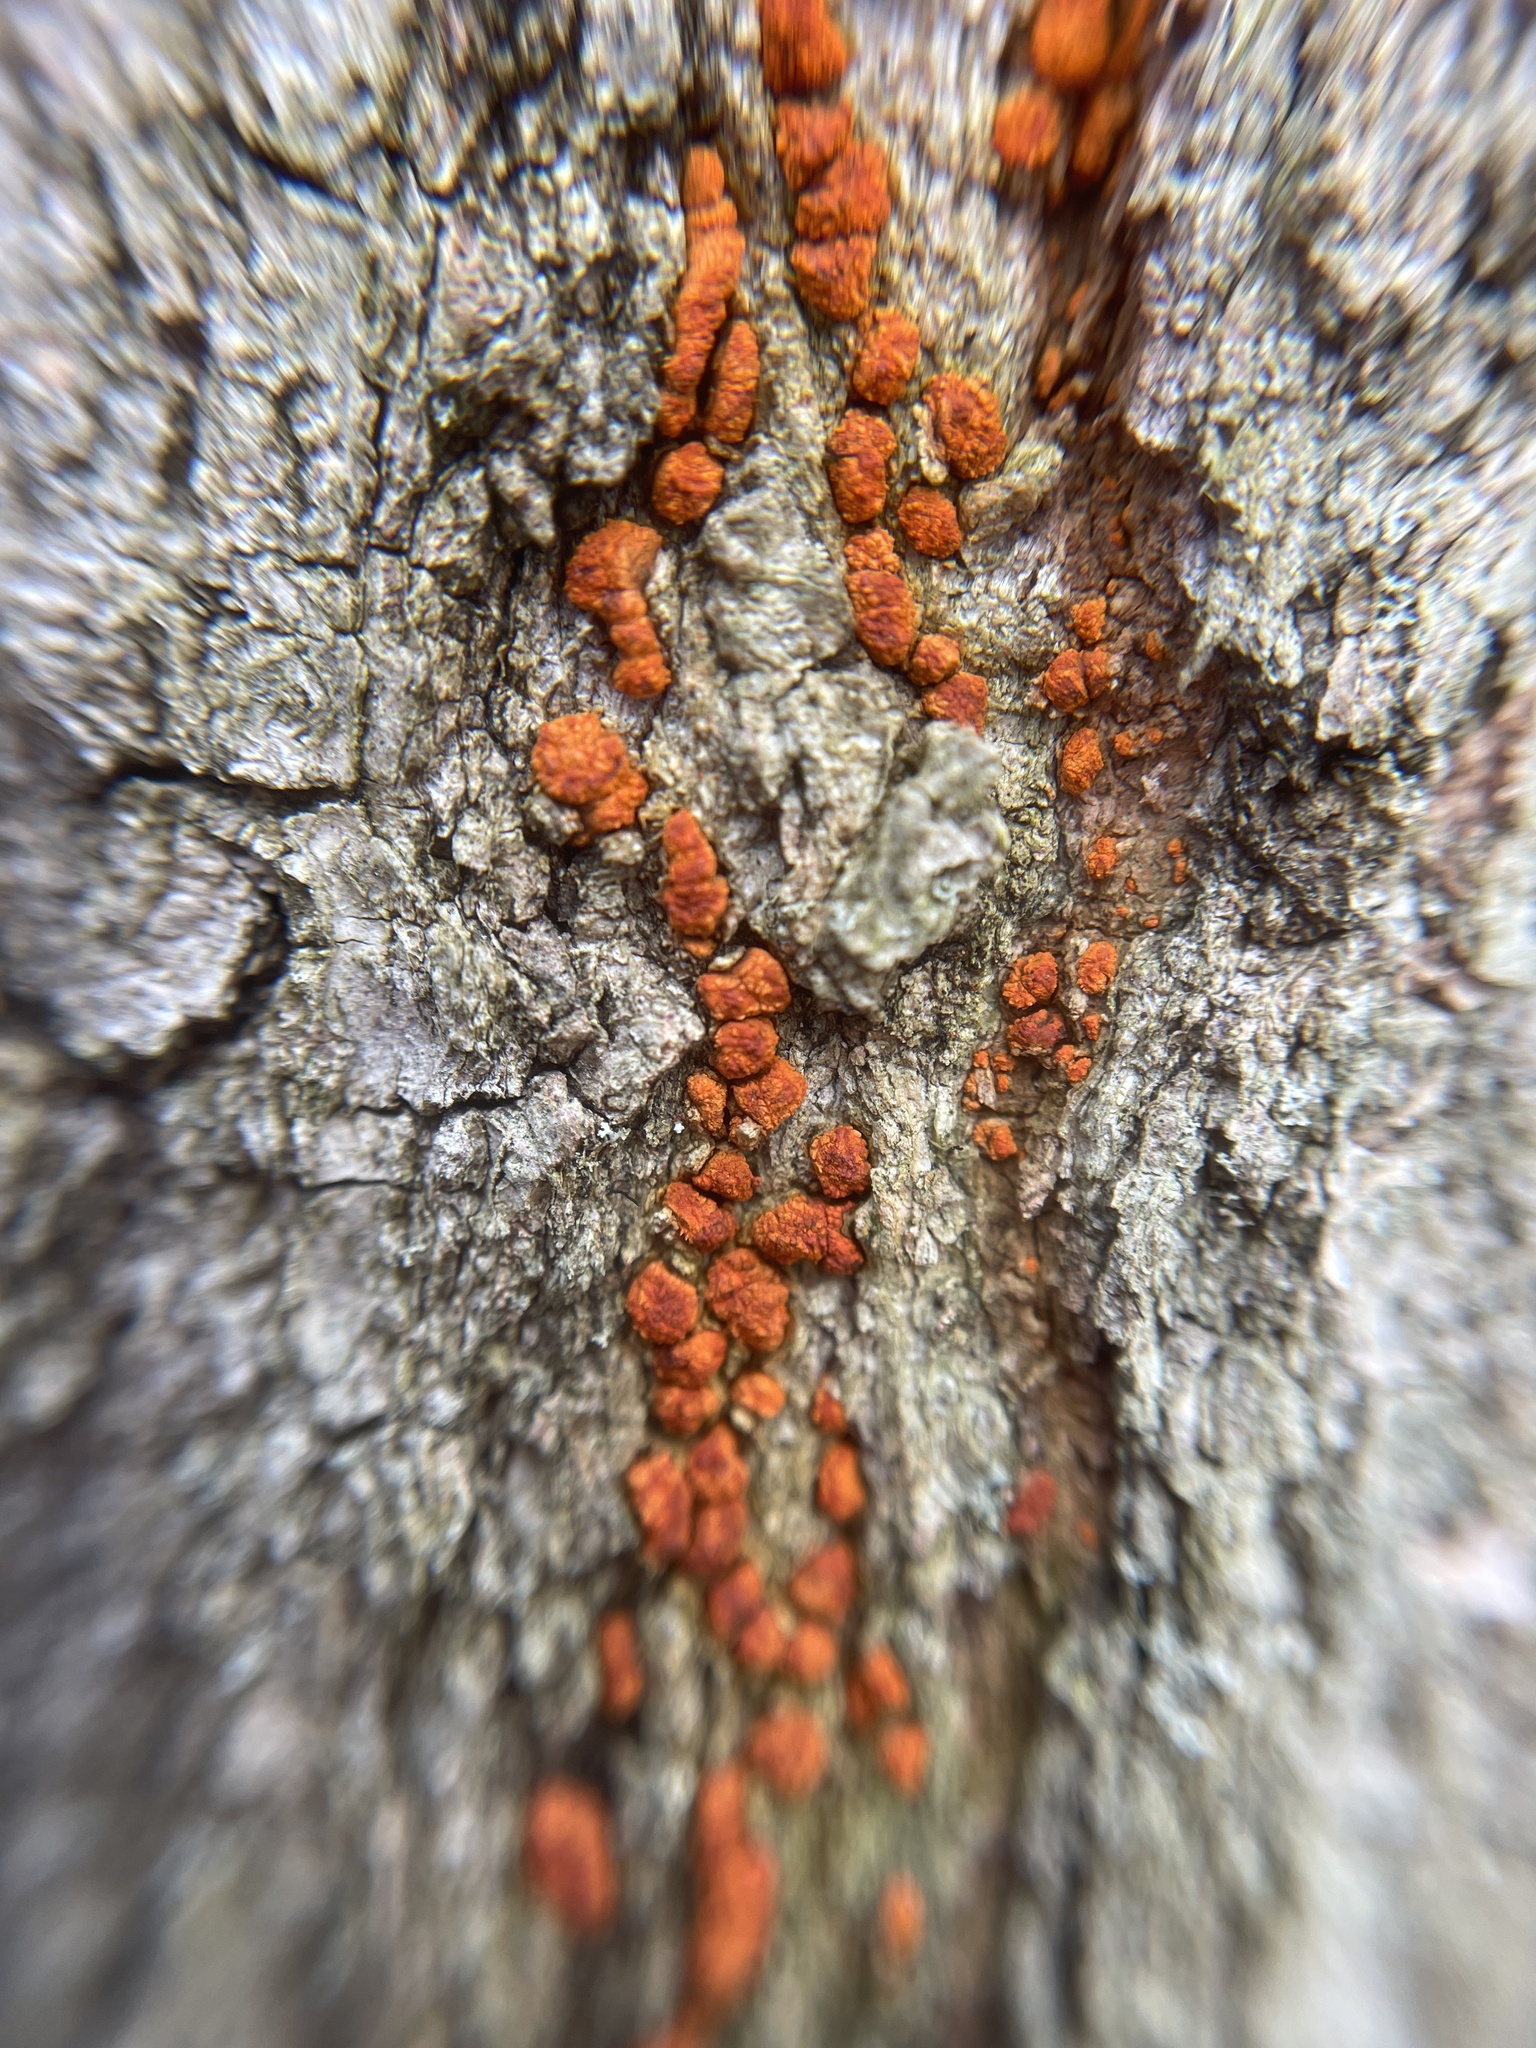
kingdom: Fungi
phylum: Ascomycota
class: Sordariomycetes
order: Diaporthales
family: Cryphonectriaceae
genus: Amphilogia
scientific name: Amphilogia gyrosa
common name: Orange hobnail canker
